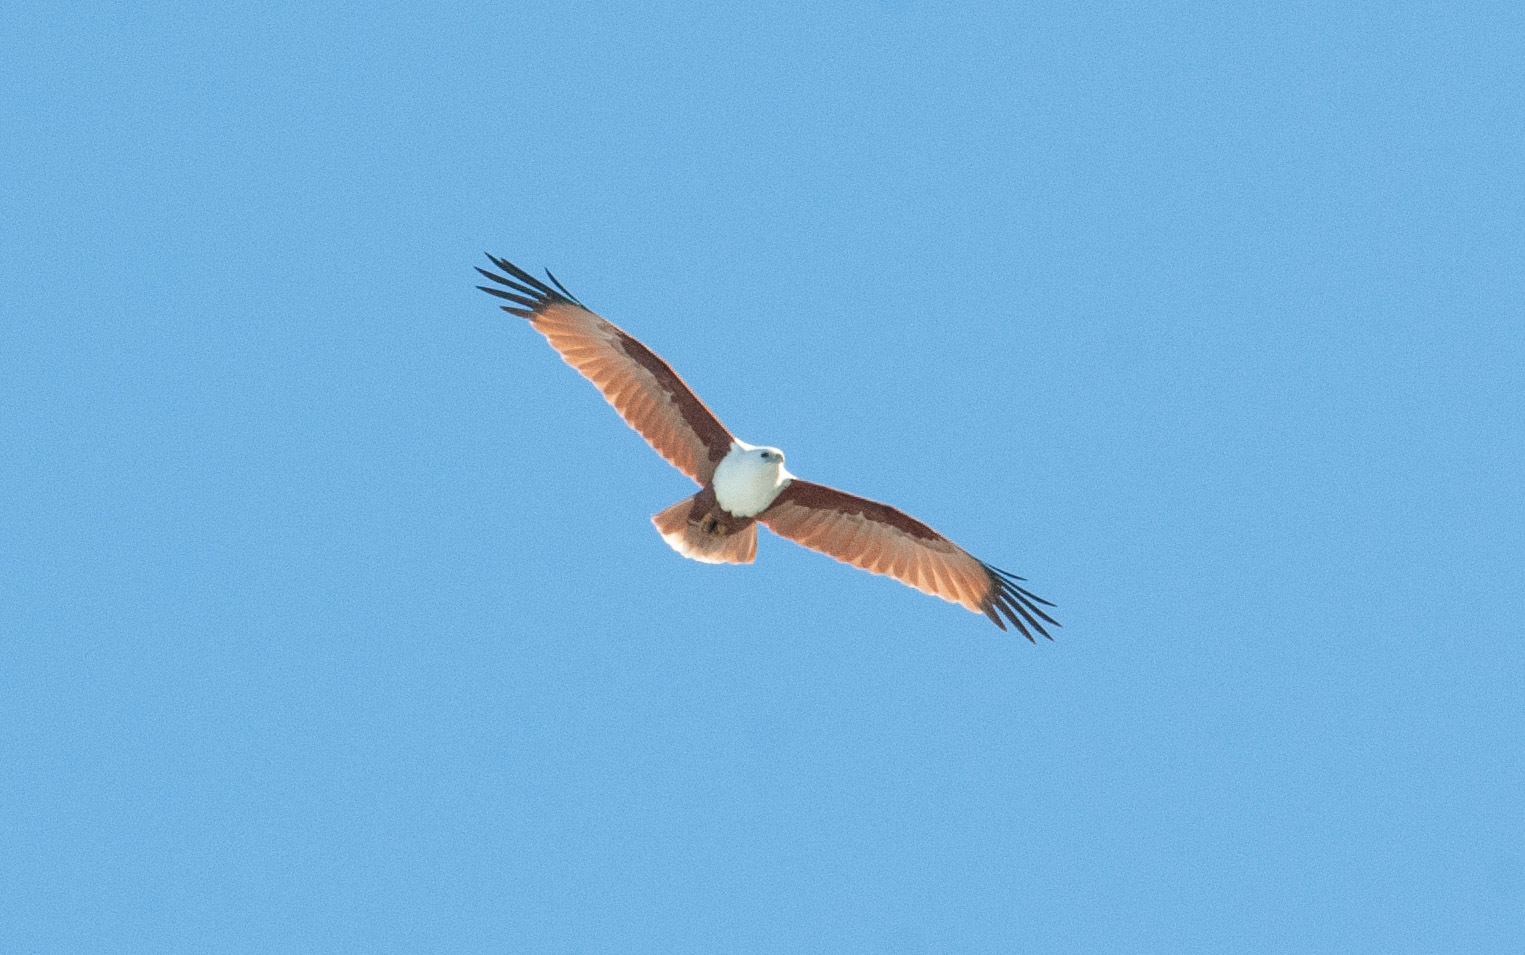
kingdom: Animalia
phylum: Chordata
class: Aves
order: Accipitriformes
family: Accipitridae
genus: Haliastur
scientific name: Haliastur indus
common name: Brahminy kite
